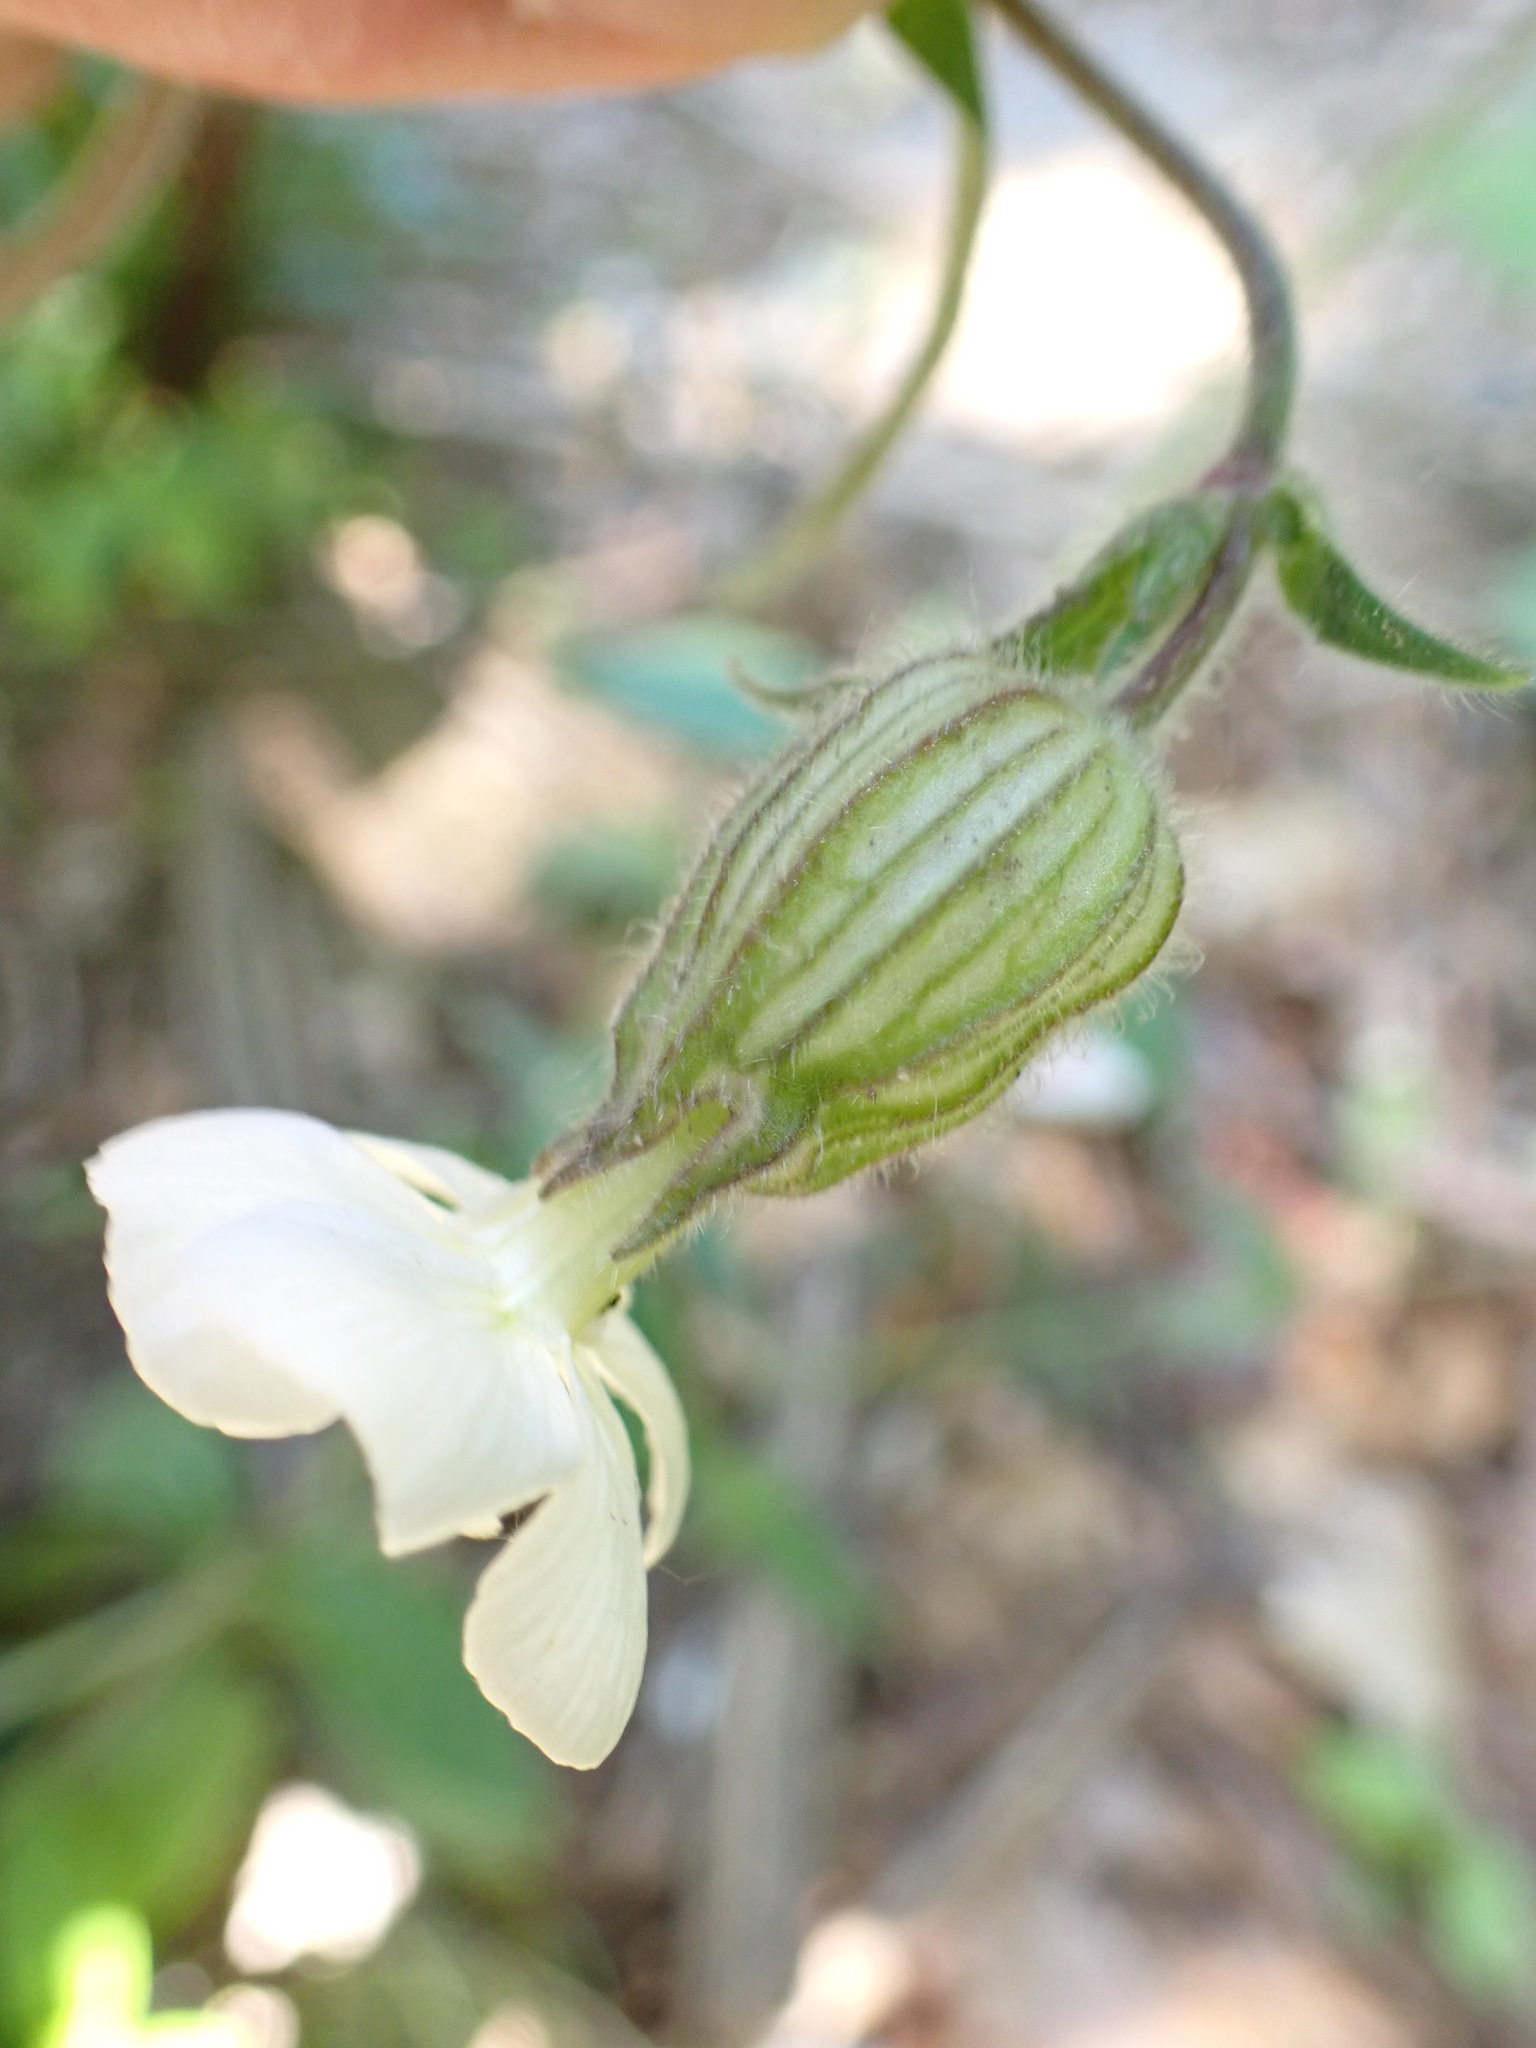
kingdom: Plantae
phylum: Tracheophyta
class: Magnoliopsida
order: Caryophyllales
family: Caryophyllaceae
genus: Silene
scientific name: Silene latifolia
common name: White campion
